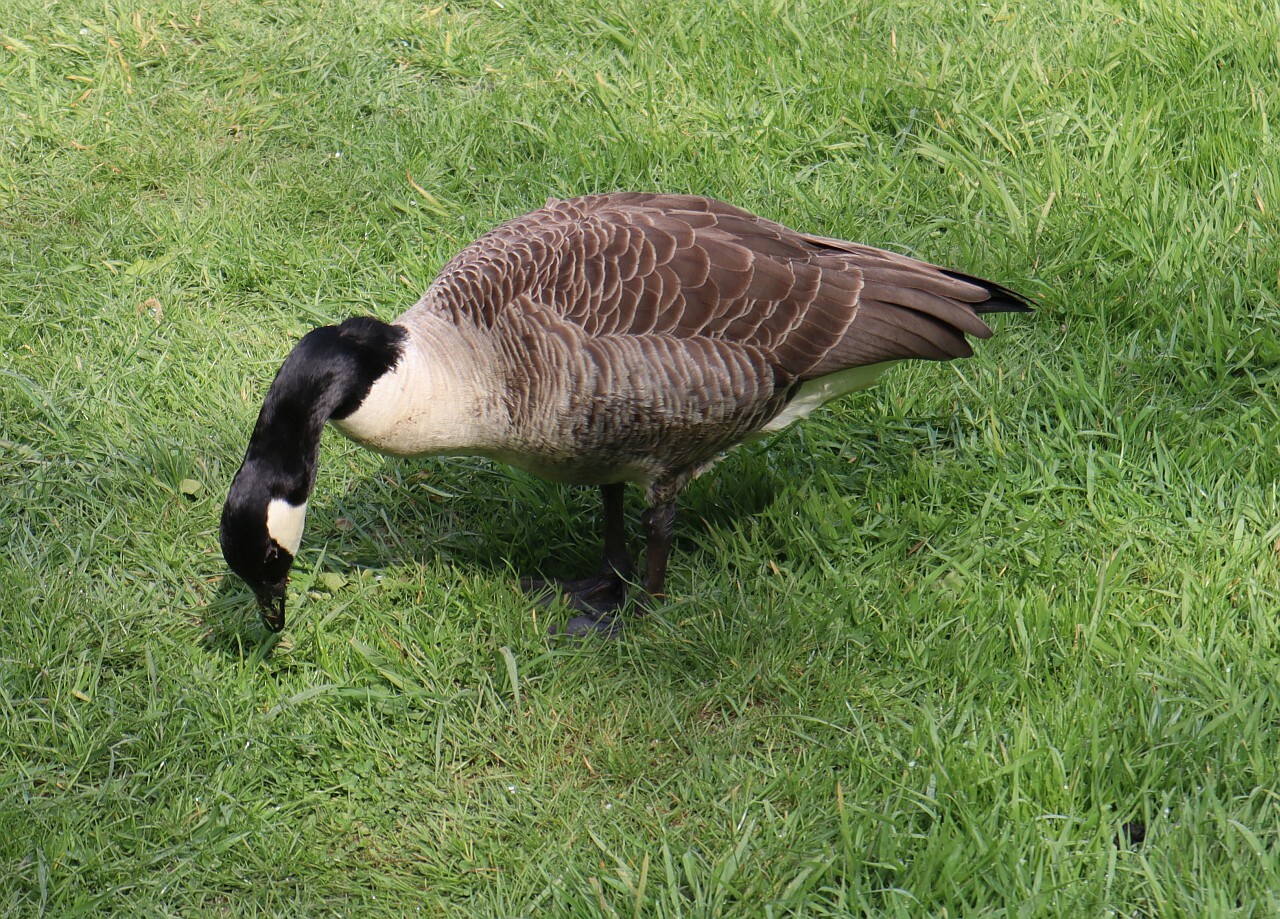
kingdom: Animalia
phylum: Chordata
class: Aves
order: Anseriformes
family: Anatidae
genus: Branta
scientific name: Branta canadensis
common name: Canada goose
